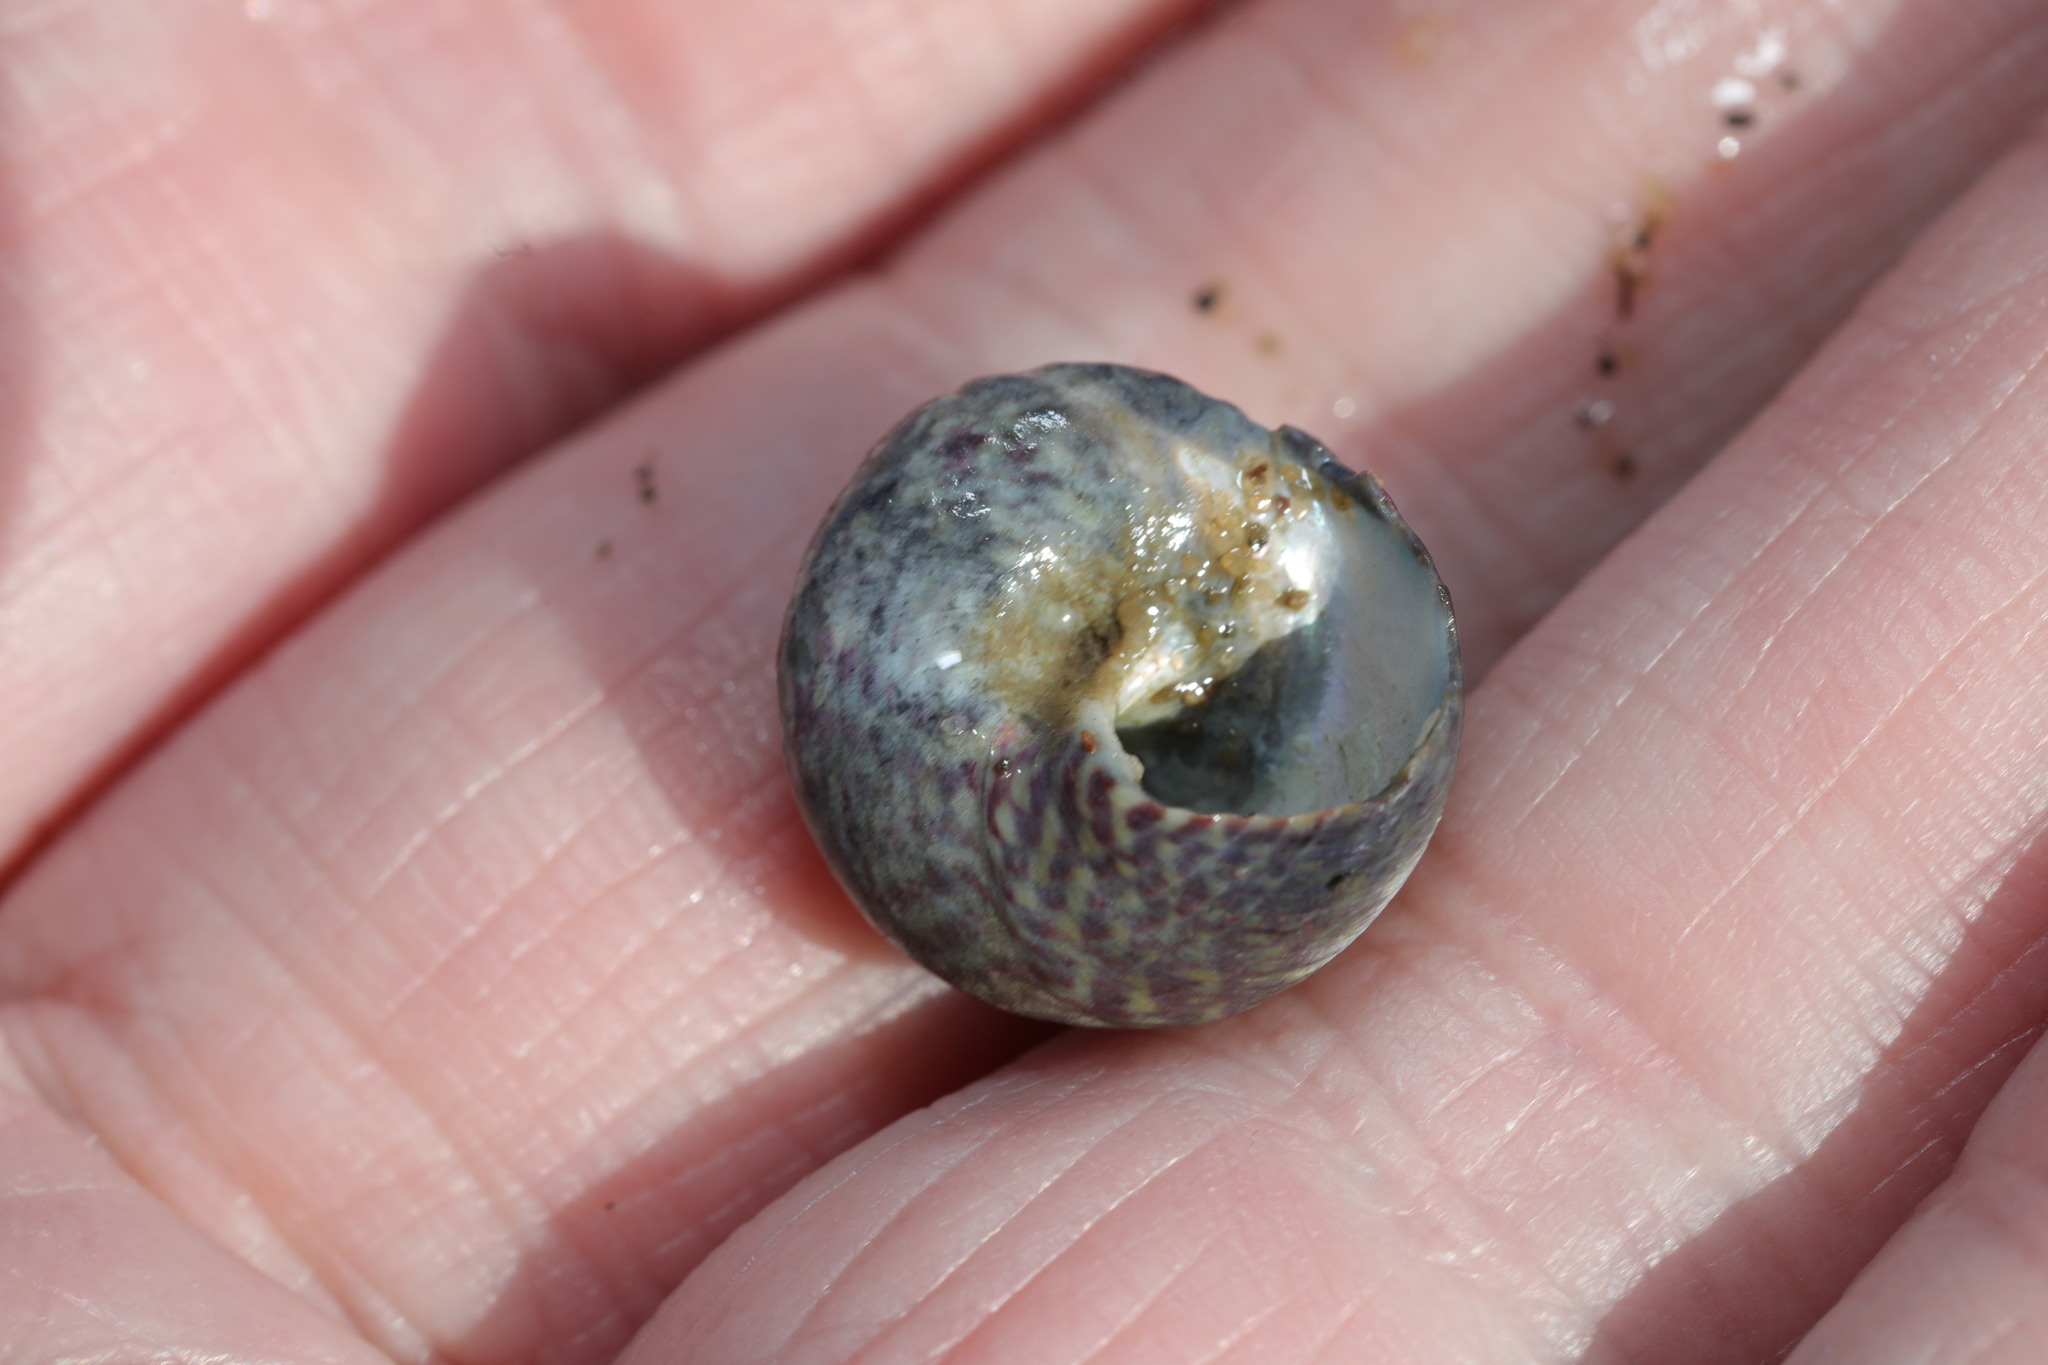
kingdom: Animalia
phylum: Mollusca
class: Gastropoda
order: Trochida
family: Trochidae
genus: Steromphala
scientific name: Steromphala umbilicalis
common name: Flat top shell
